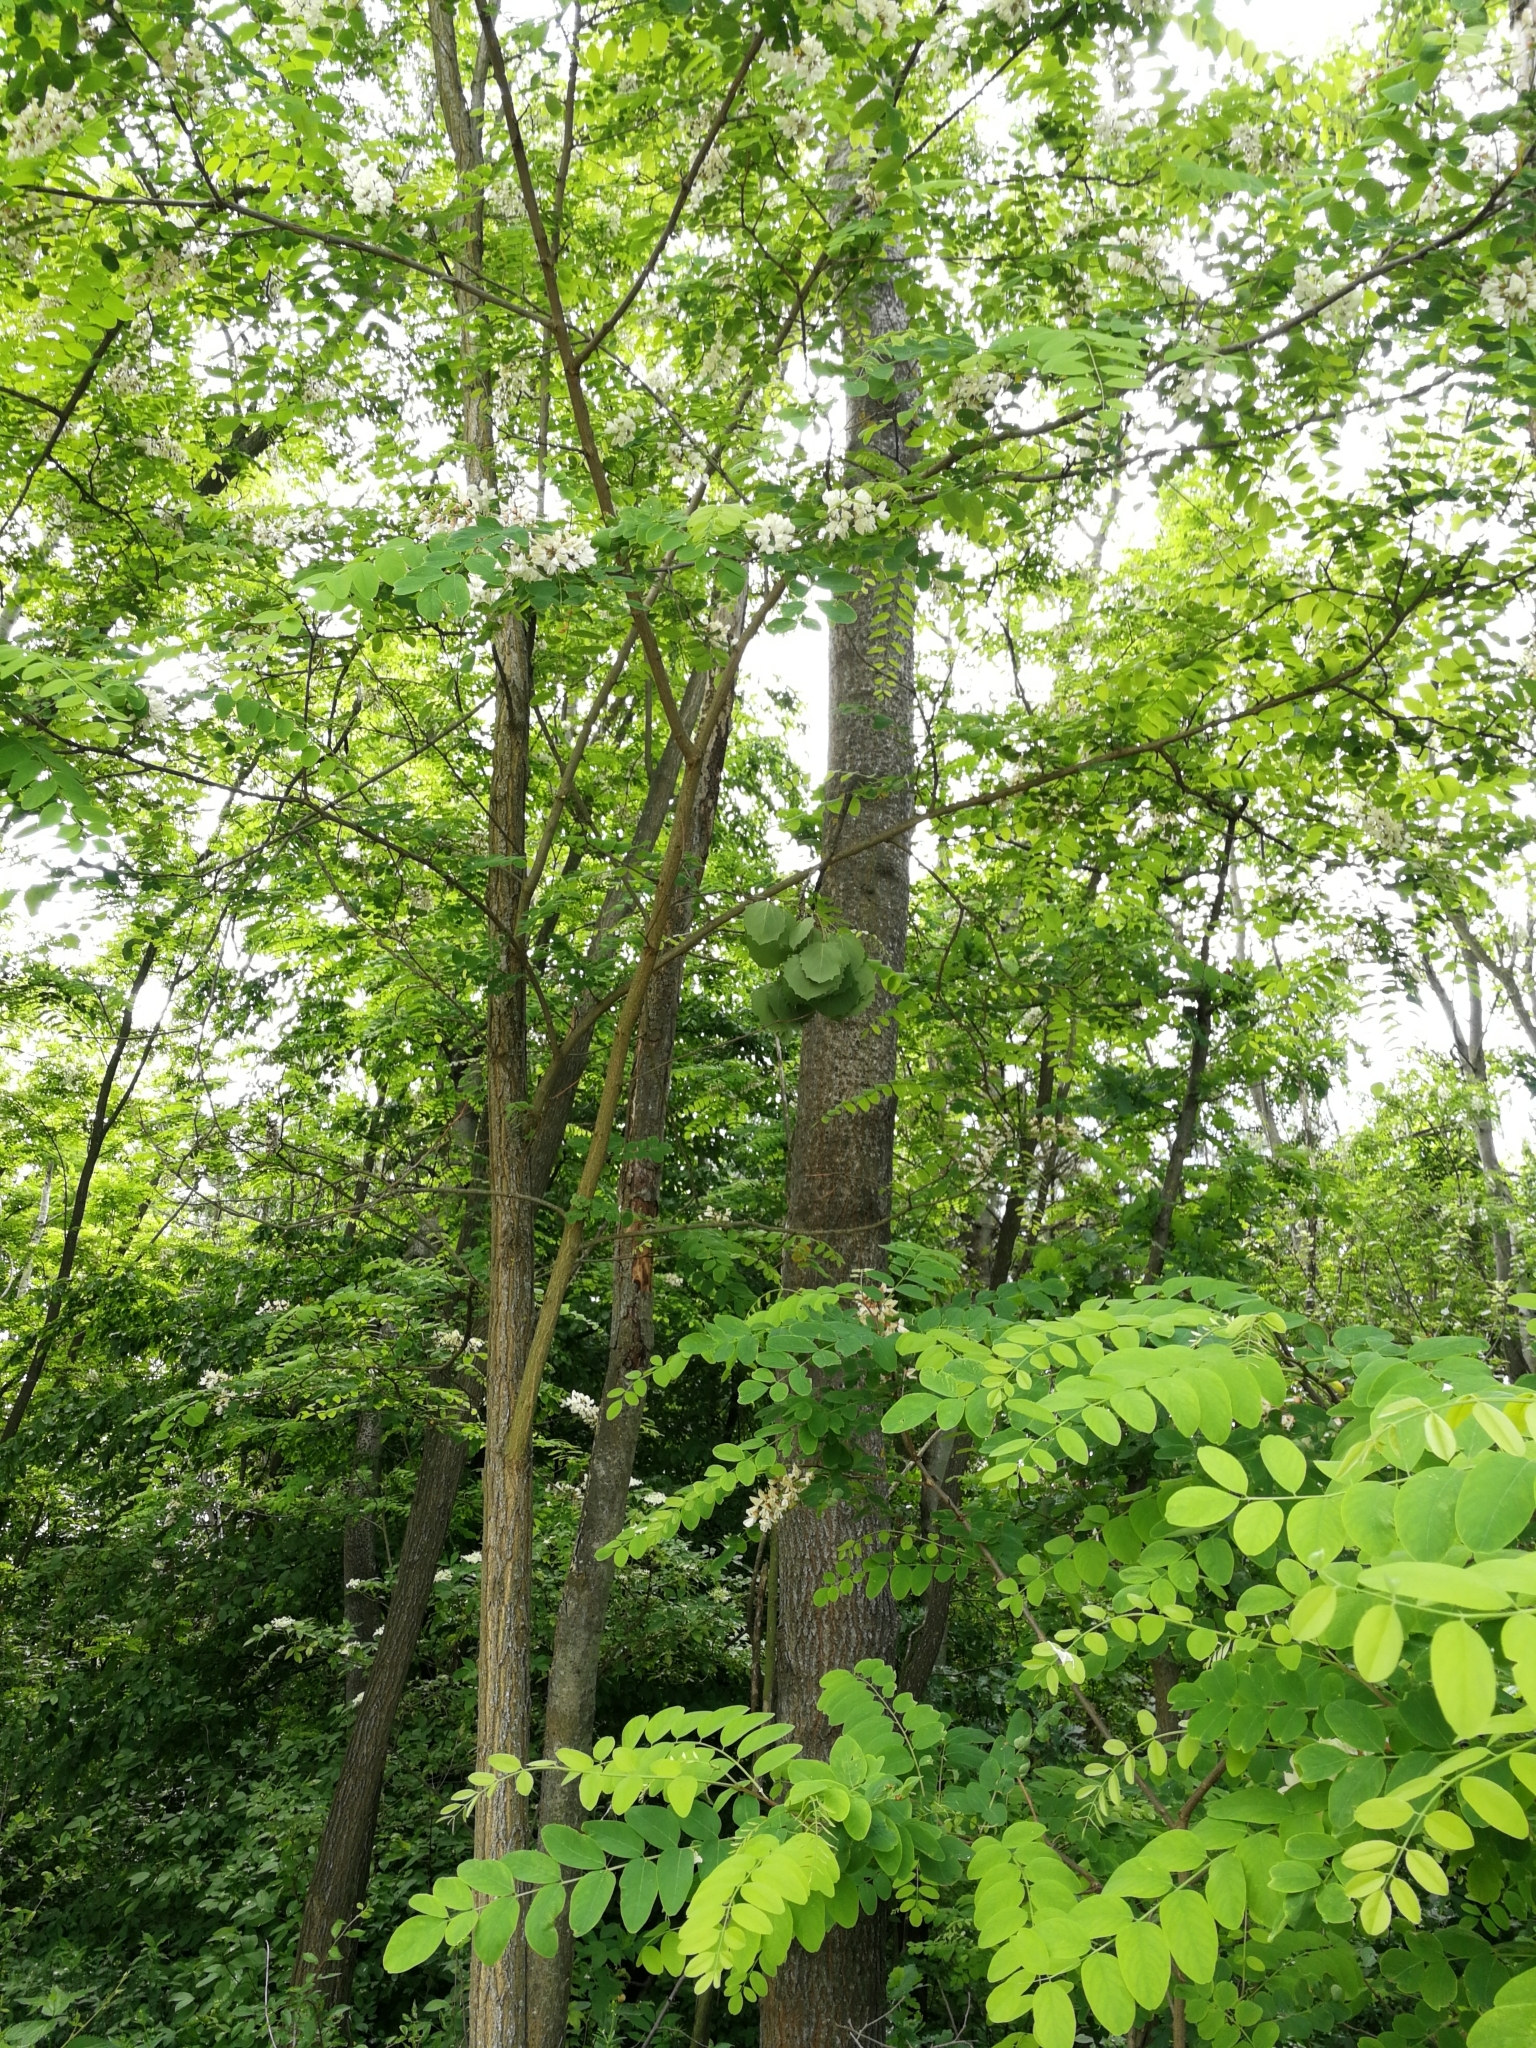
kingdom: Plantae
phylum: Tracheophyta
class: Magnoliopsida
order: Fabales
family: Fabaceae
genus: Robinia
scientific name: Robinia pseudoacacia
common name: Black locust
